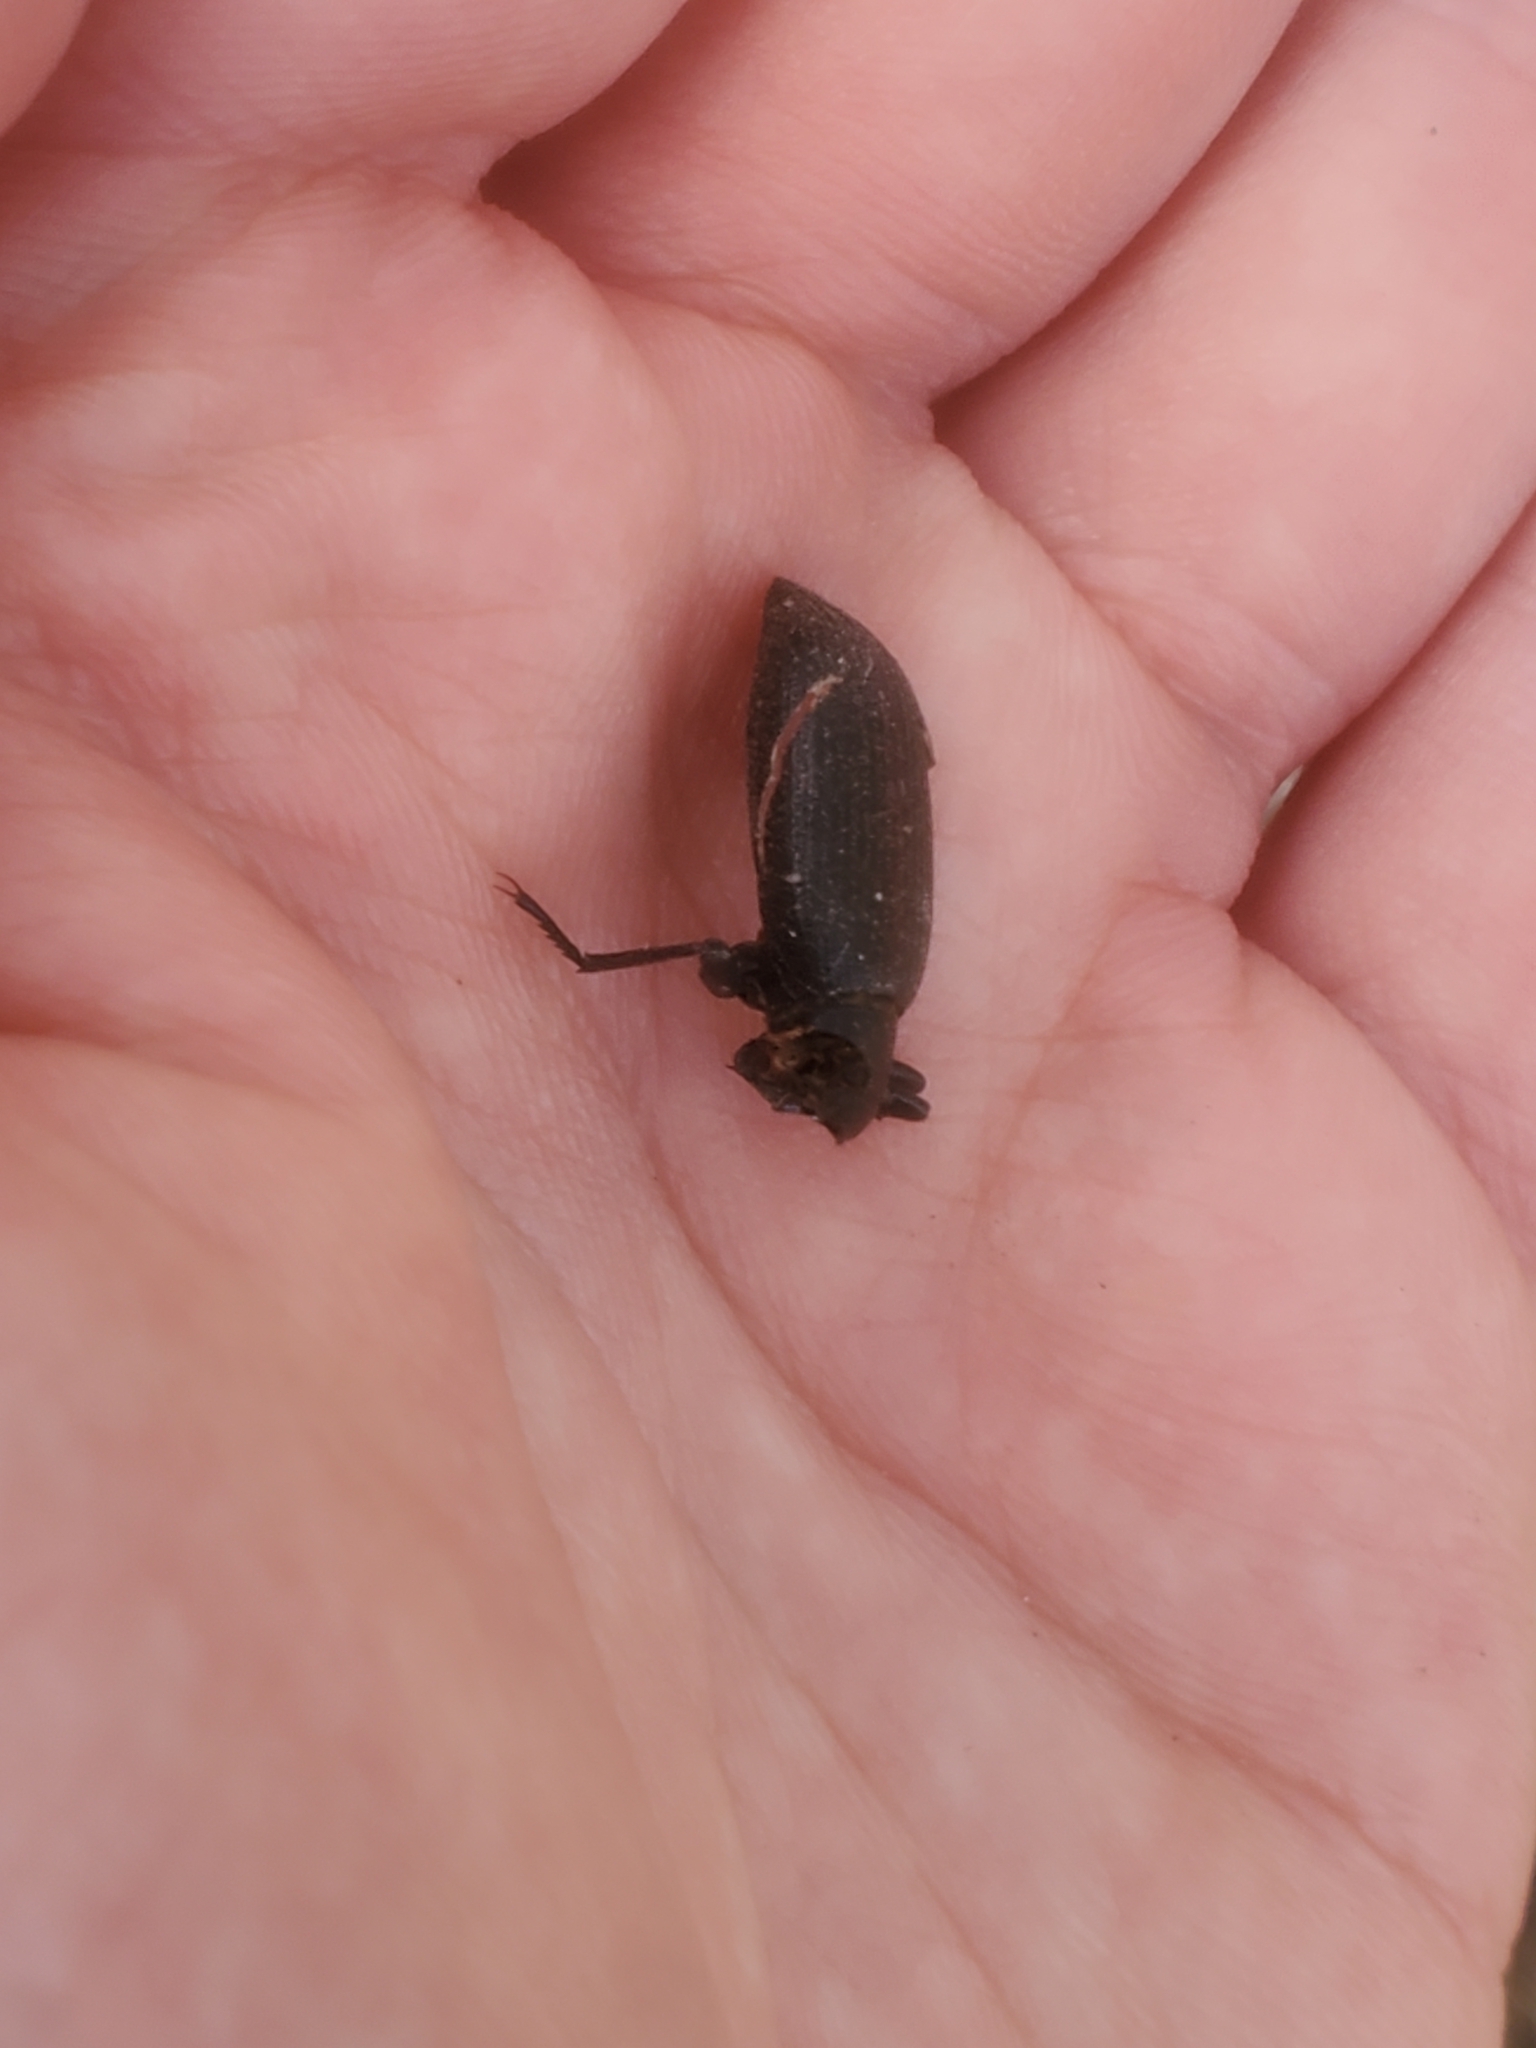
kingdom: Animalia
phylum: Arthropoda
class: Insecta
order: Coleoptera
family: Tenebrionidae
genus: Eleodes
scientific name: Eleodes hispilabris
